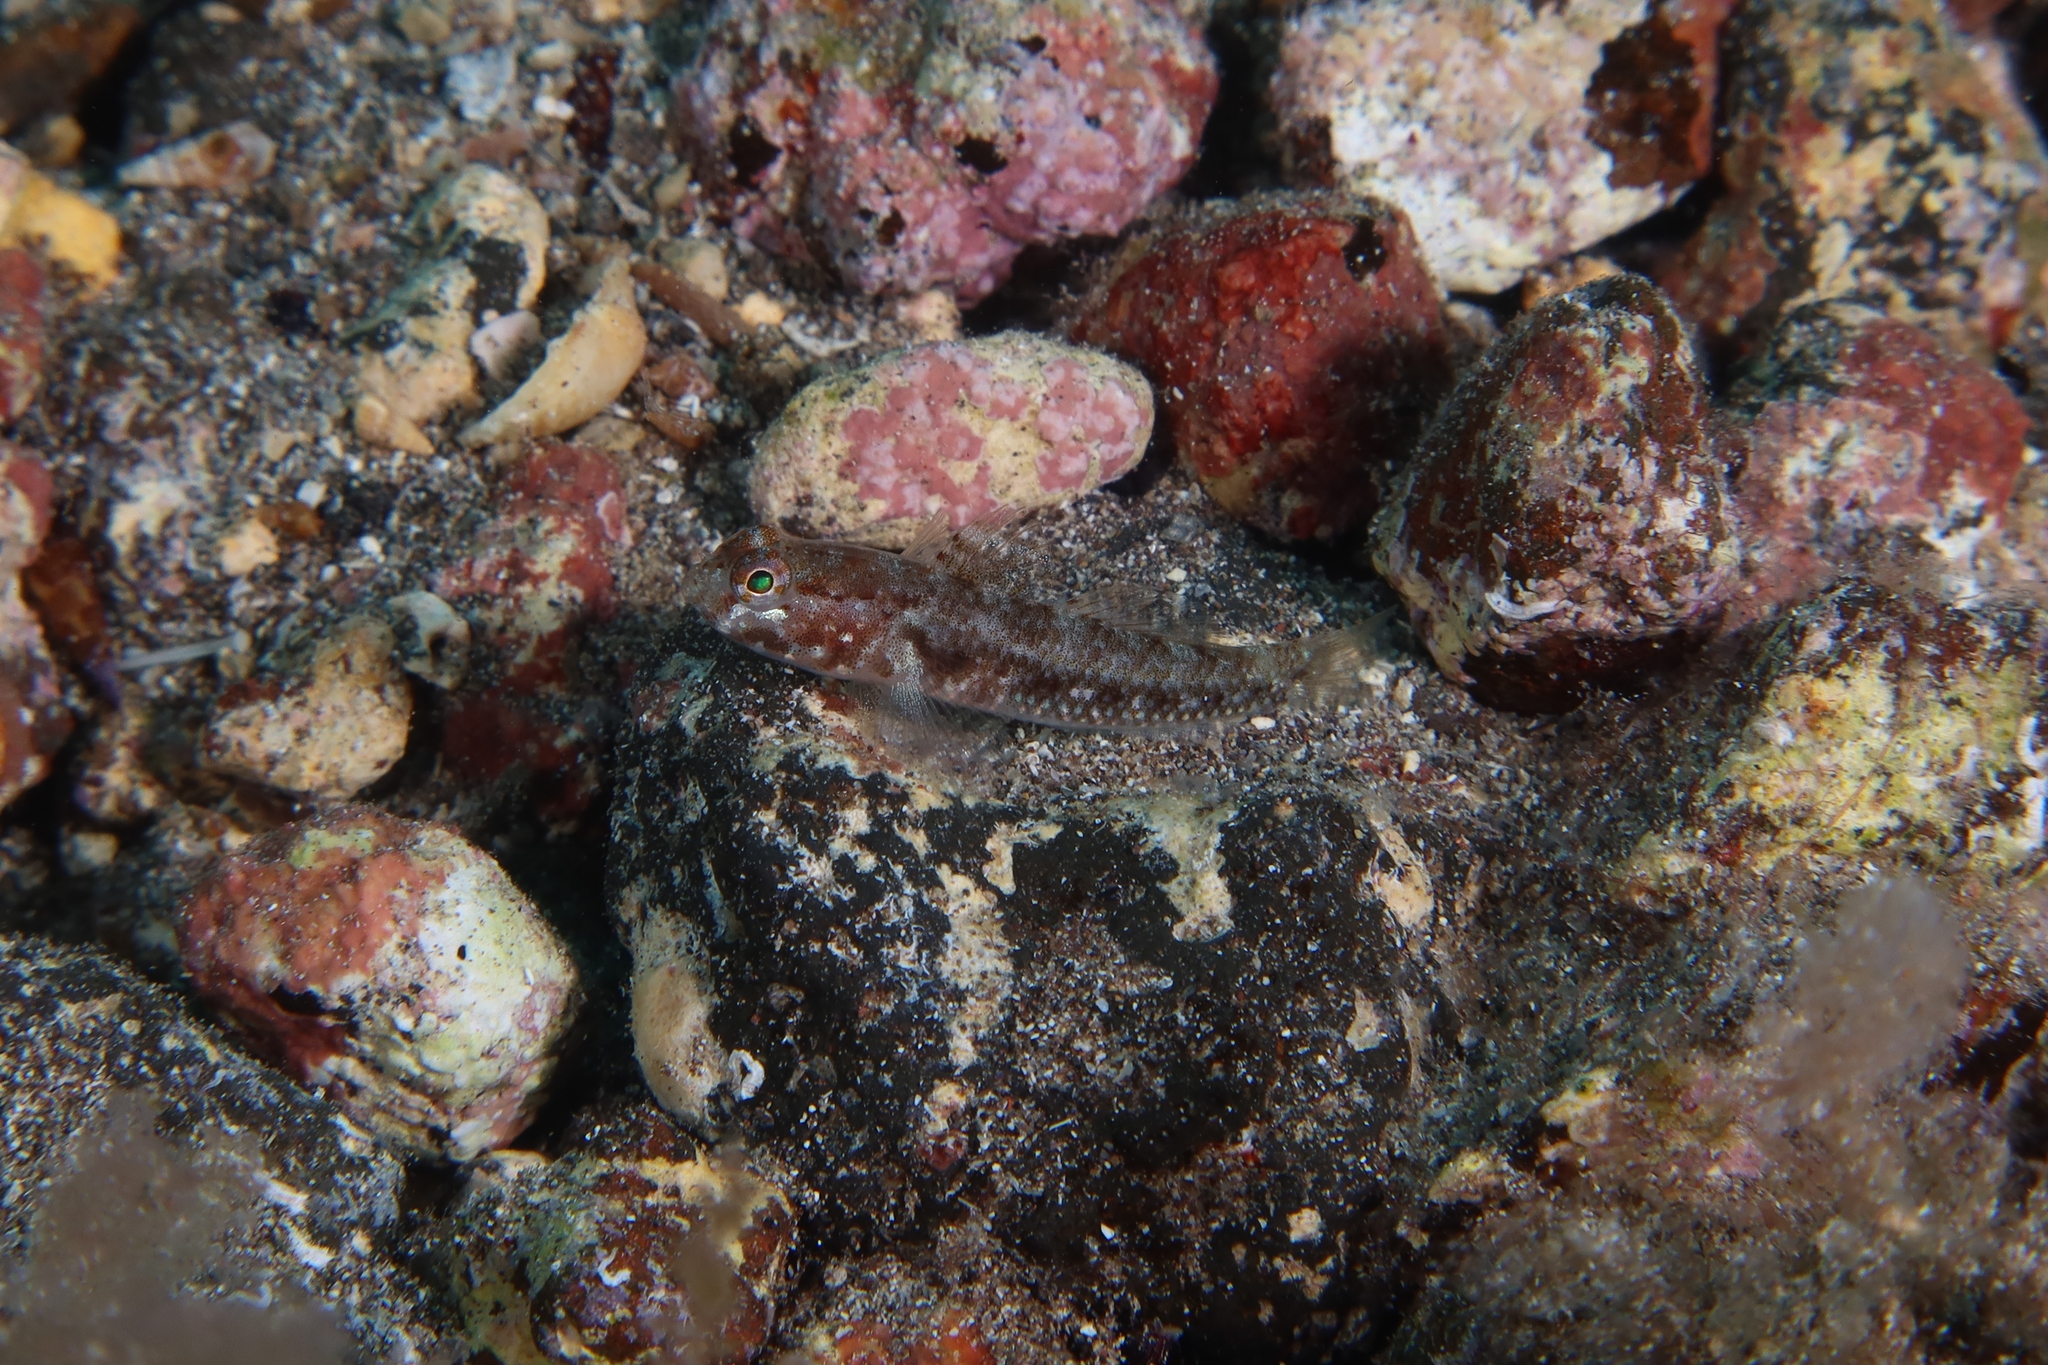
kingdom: Animalia
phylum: Chordata
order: Perciformes
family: Gobiidae
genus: Vanneaugobius
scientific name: Vanneaugobius canariensis
